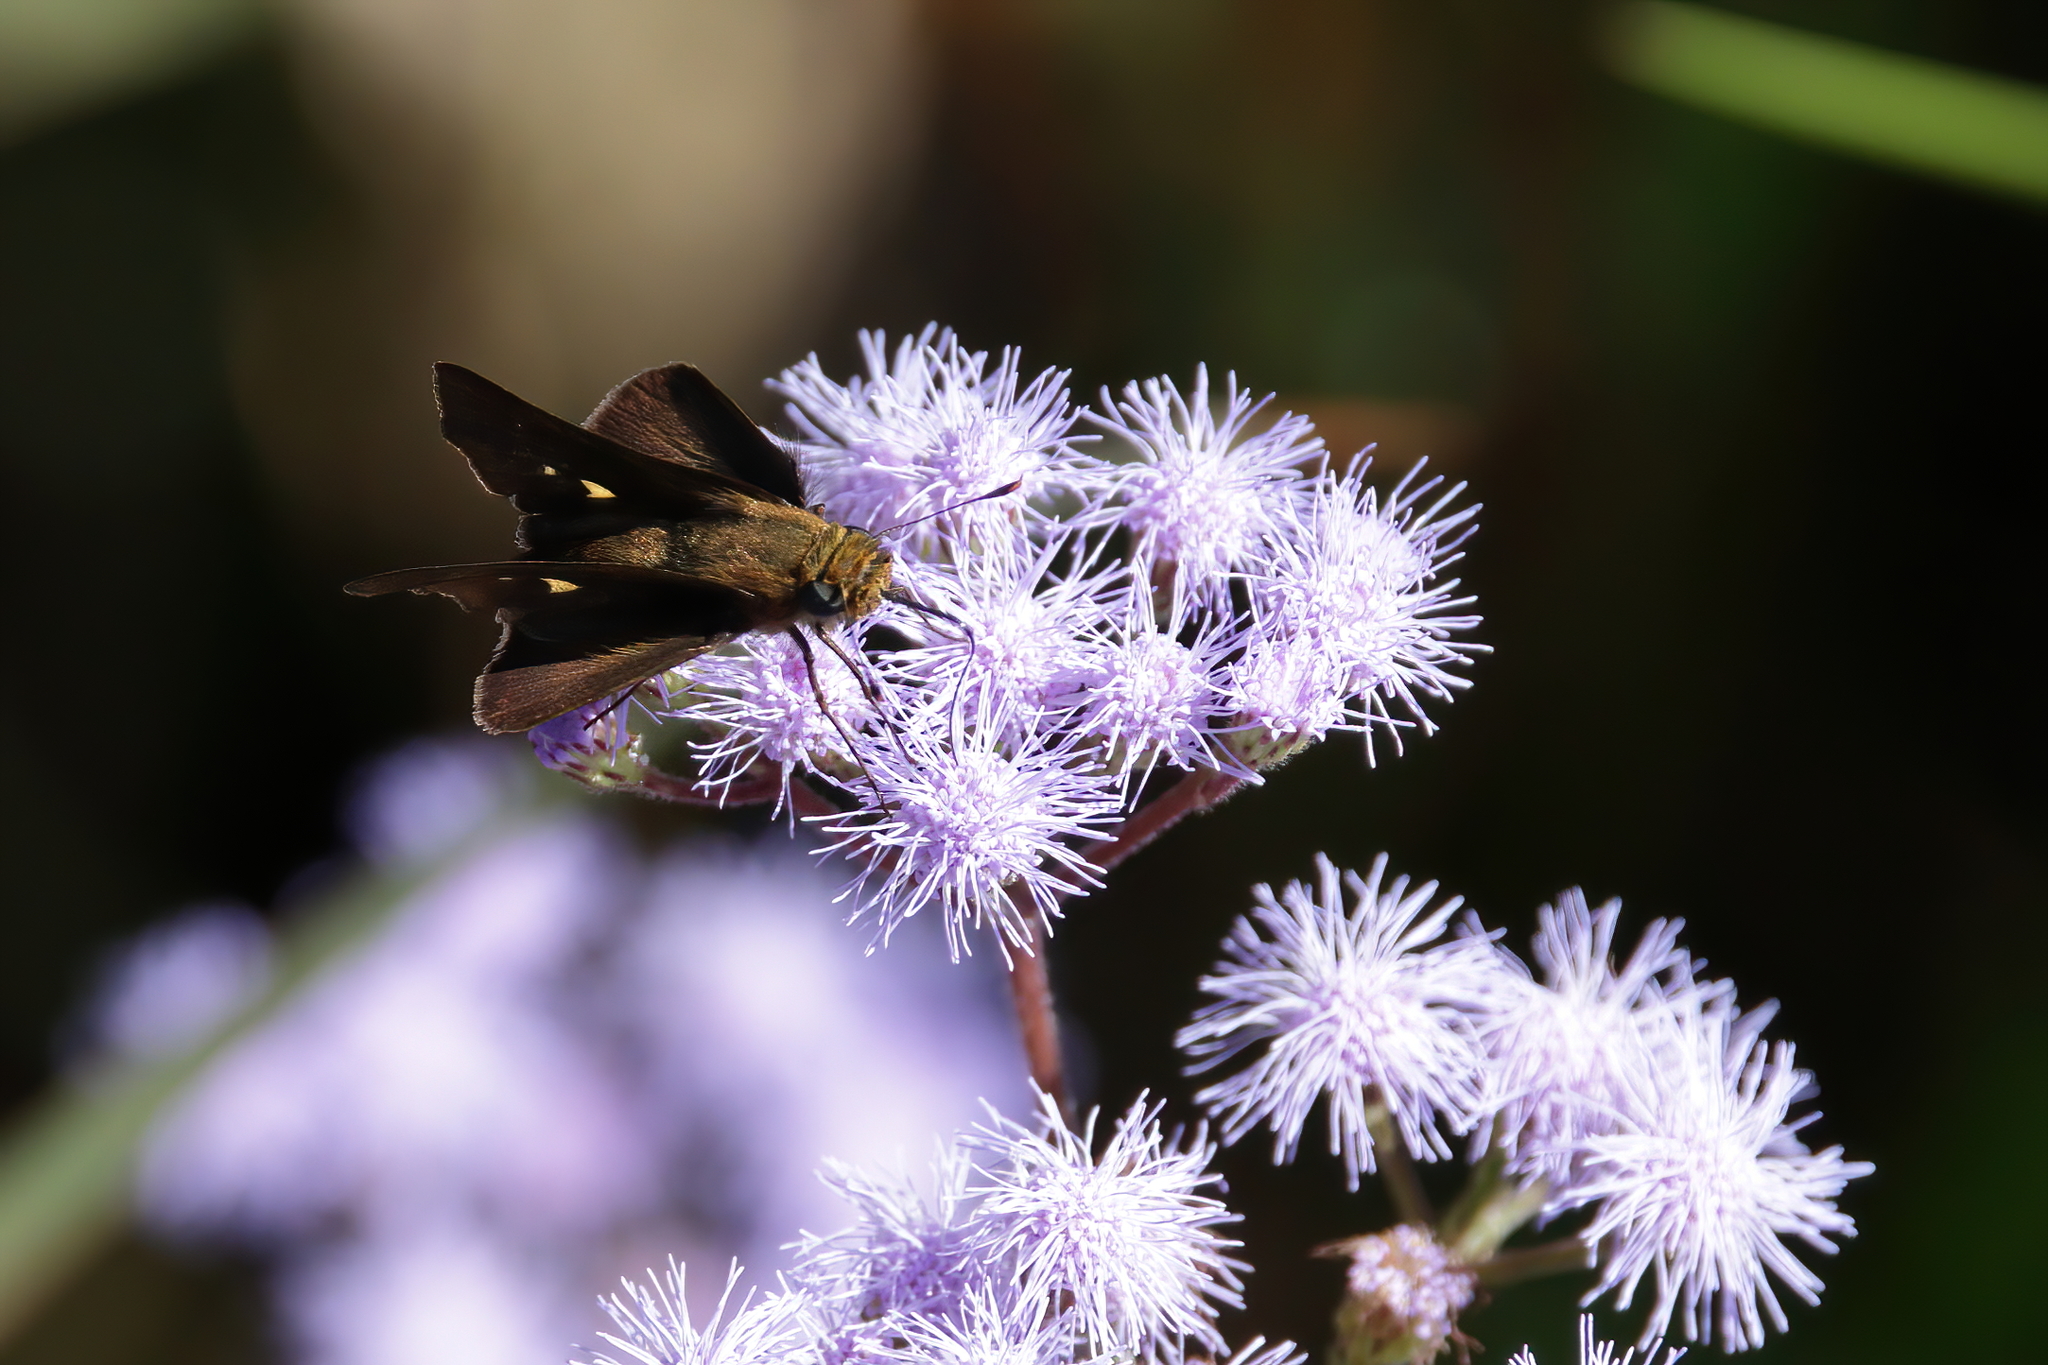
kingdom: Animalia
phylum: Arthropoda
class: Insecta
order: Lepidoptera
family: Hesperiidae
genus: Panoquina
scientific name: Panoquina ocola
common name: Ocola skipper
